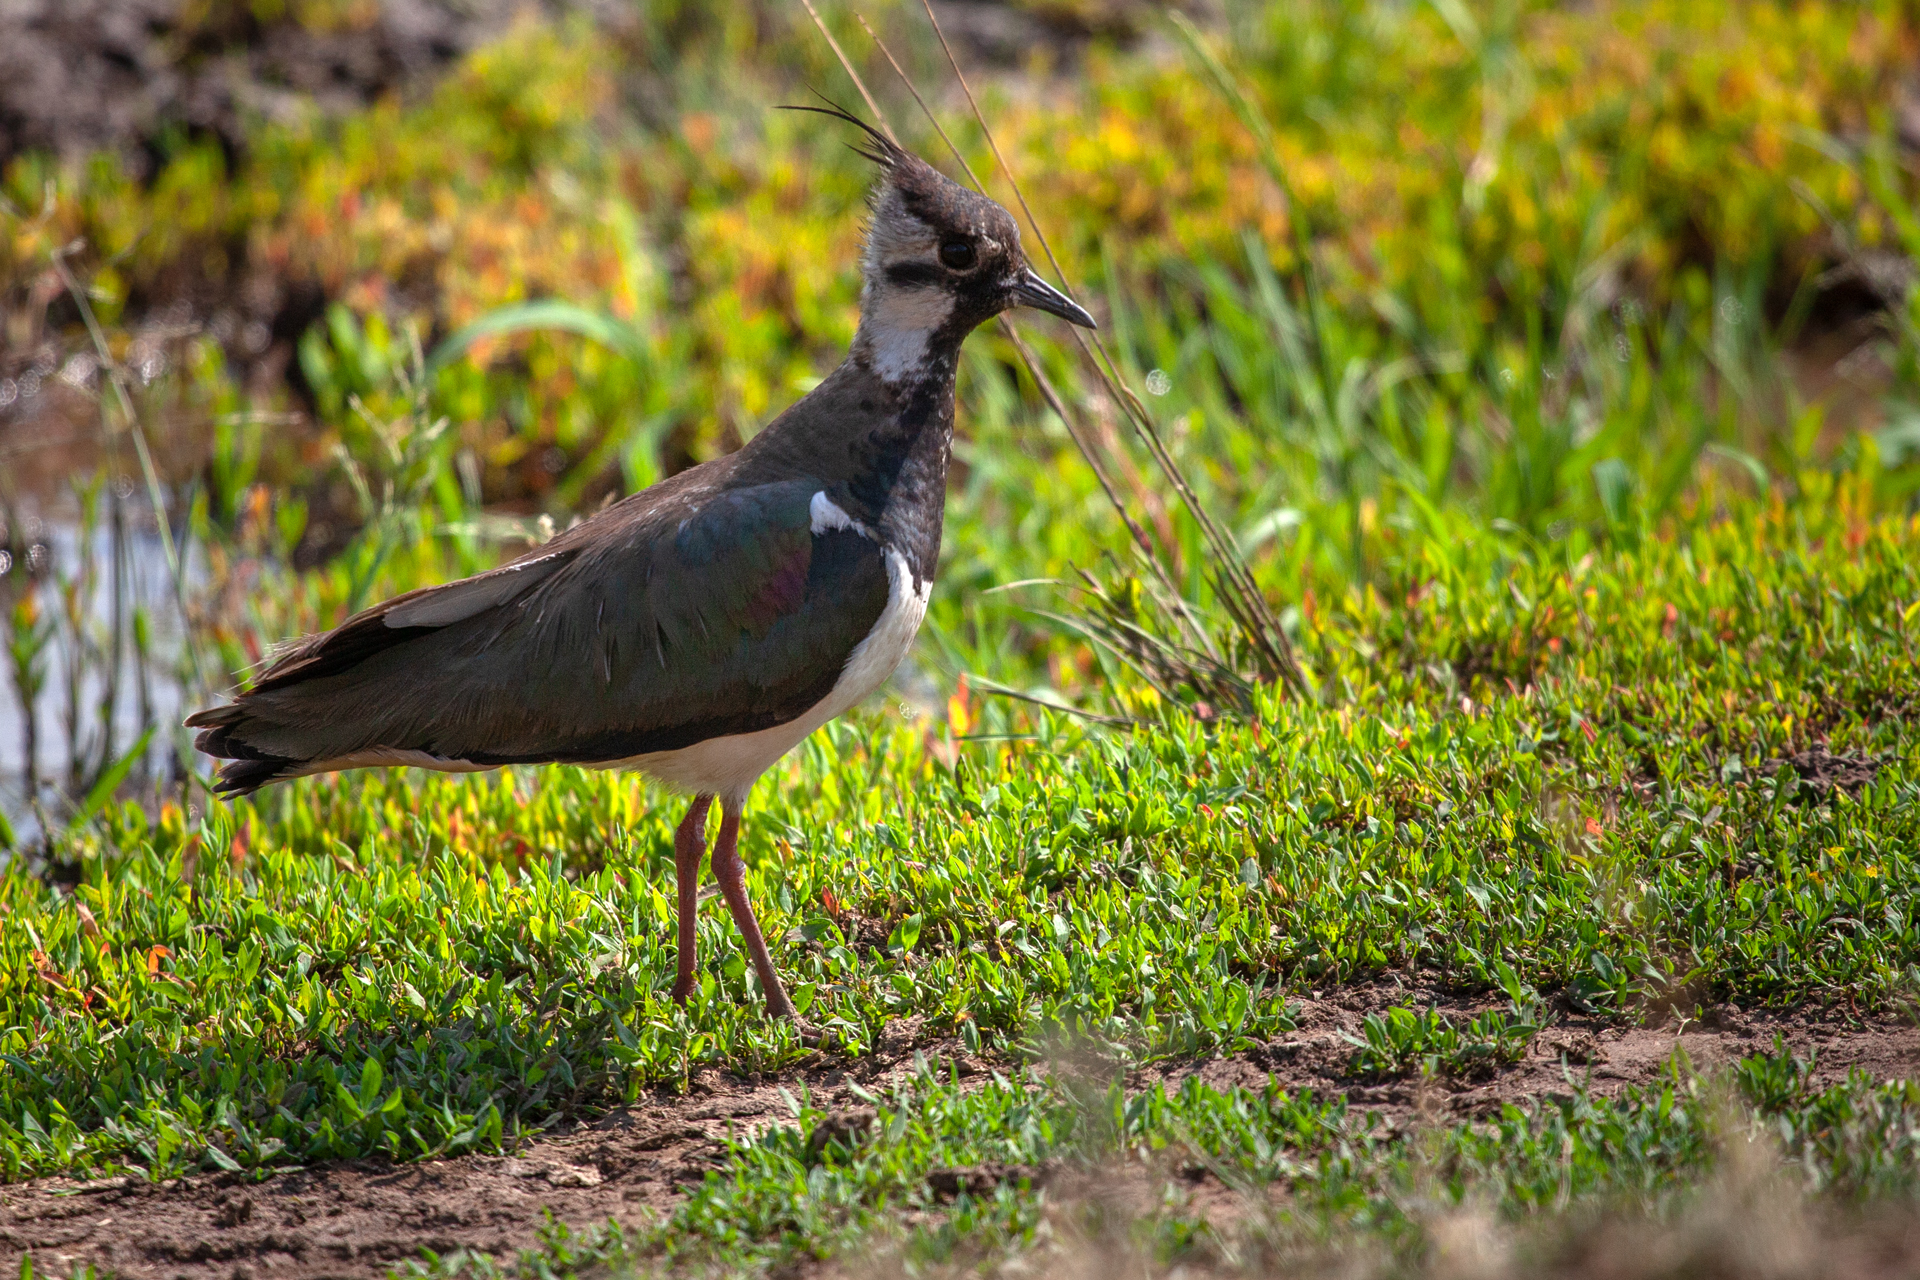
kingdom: Animalia
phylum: Chordata
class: Aves
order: Charadriiformes
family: Charadriidae
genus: Vanellus
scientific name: Vanellus vanellus
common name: Northern lapwing
